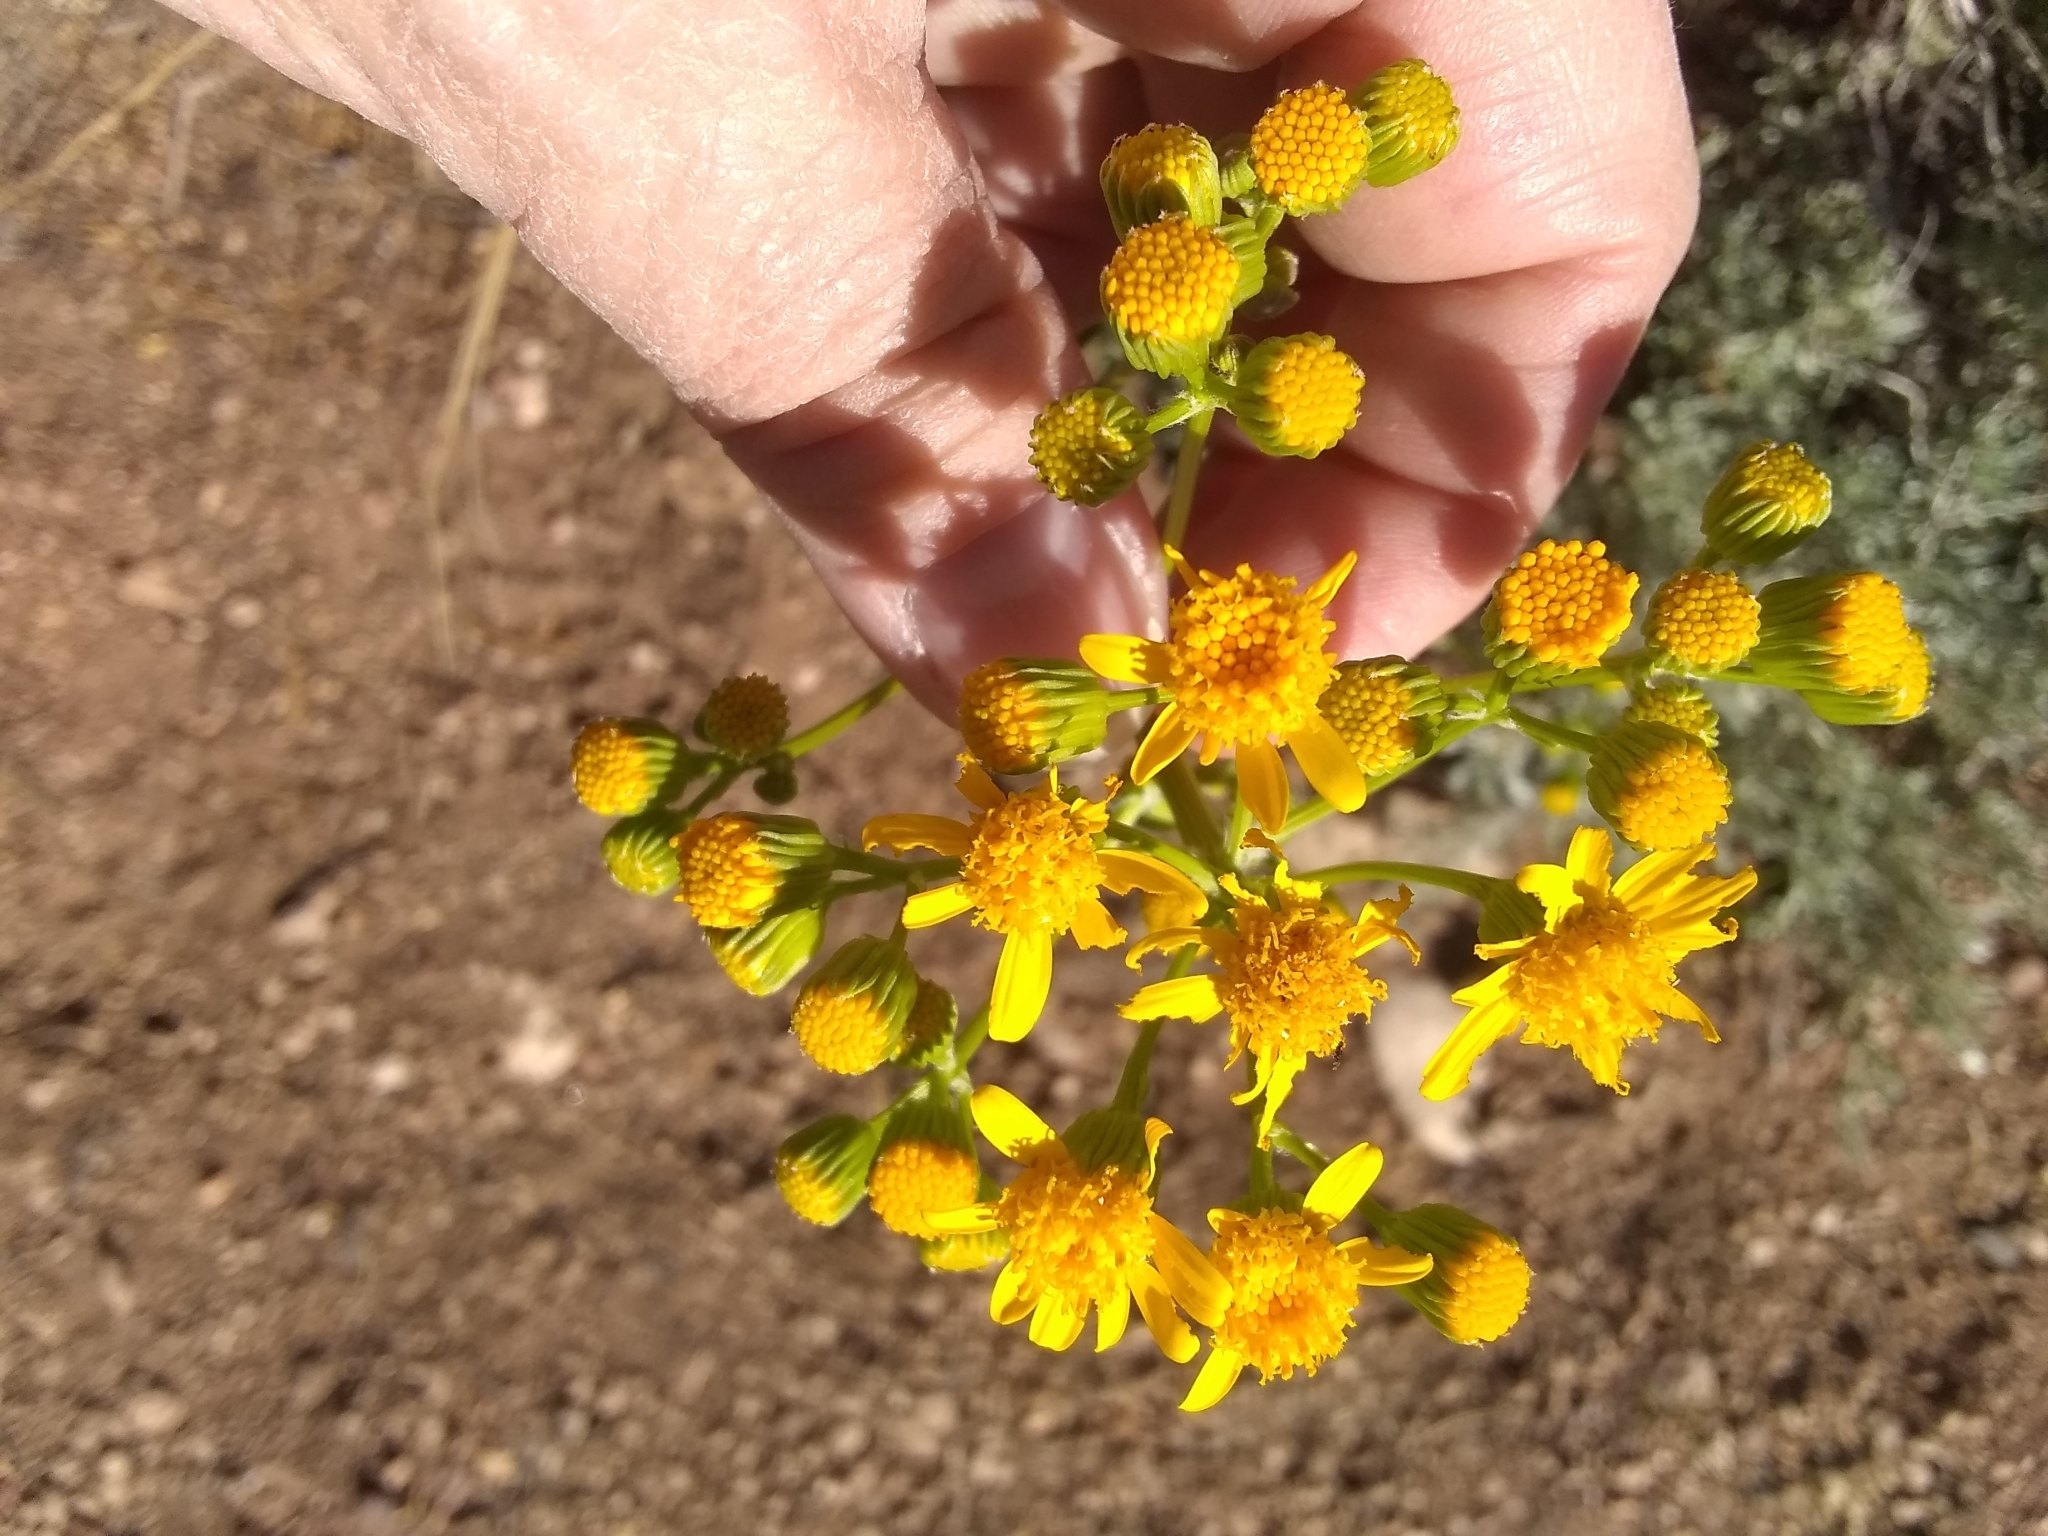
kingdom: Plantae
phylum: Tracheophyta
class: Magnoliopsida
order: Asterales
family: Asteraceae
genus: Packera
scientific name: Packera multilobata
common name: Lobe-leaf groundsel
